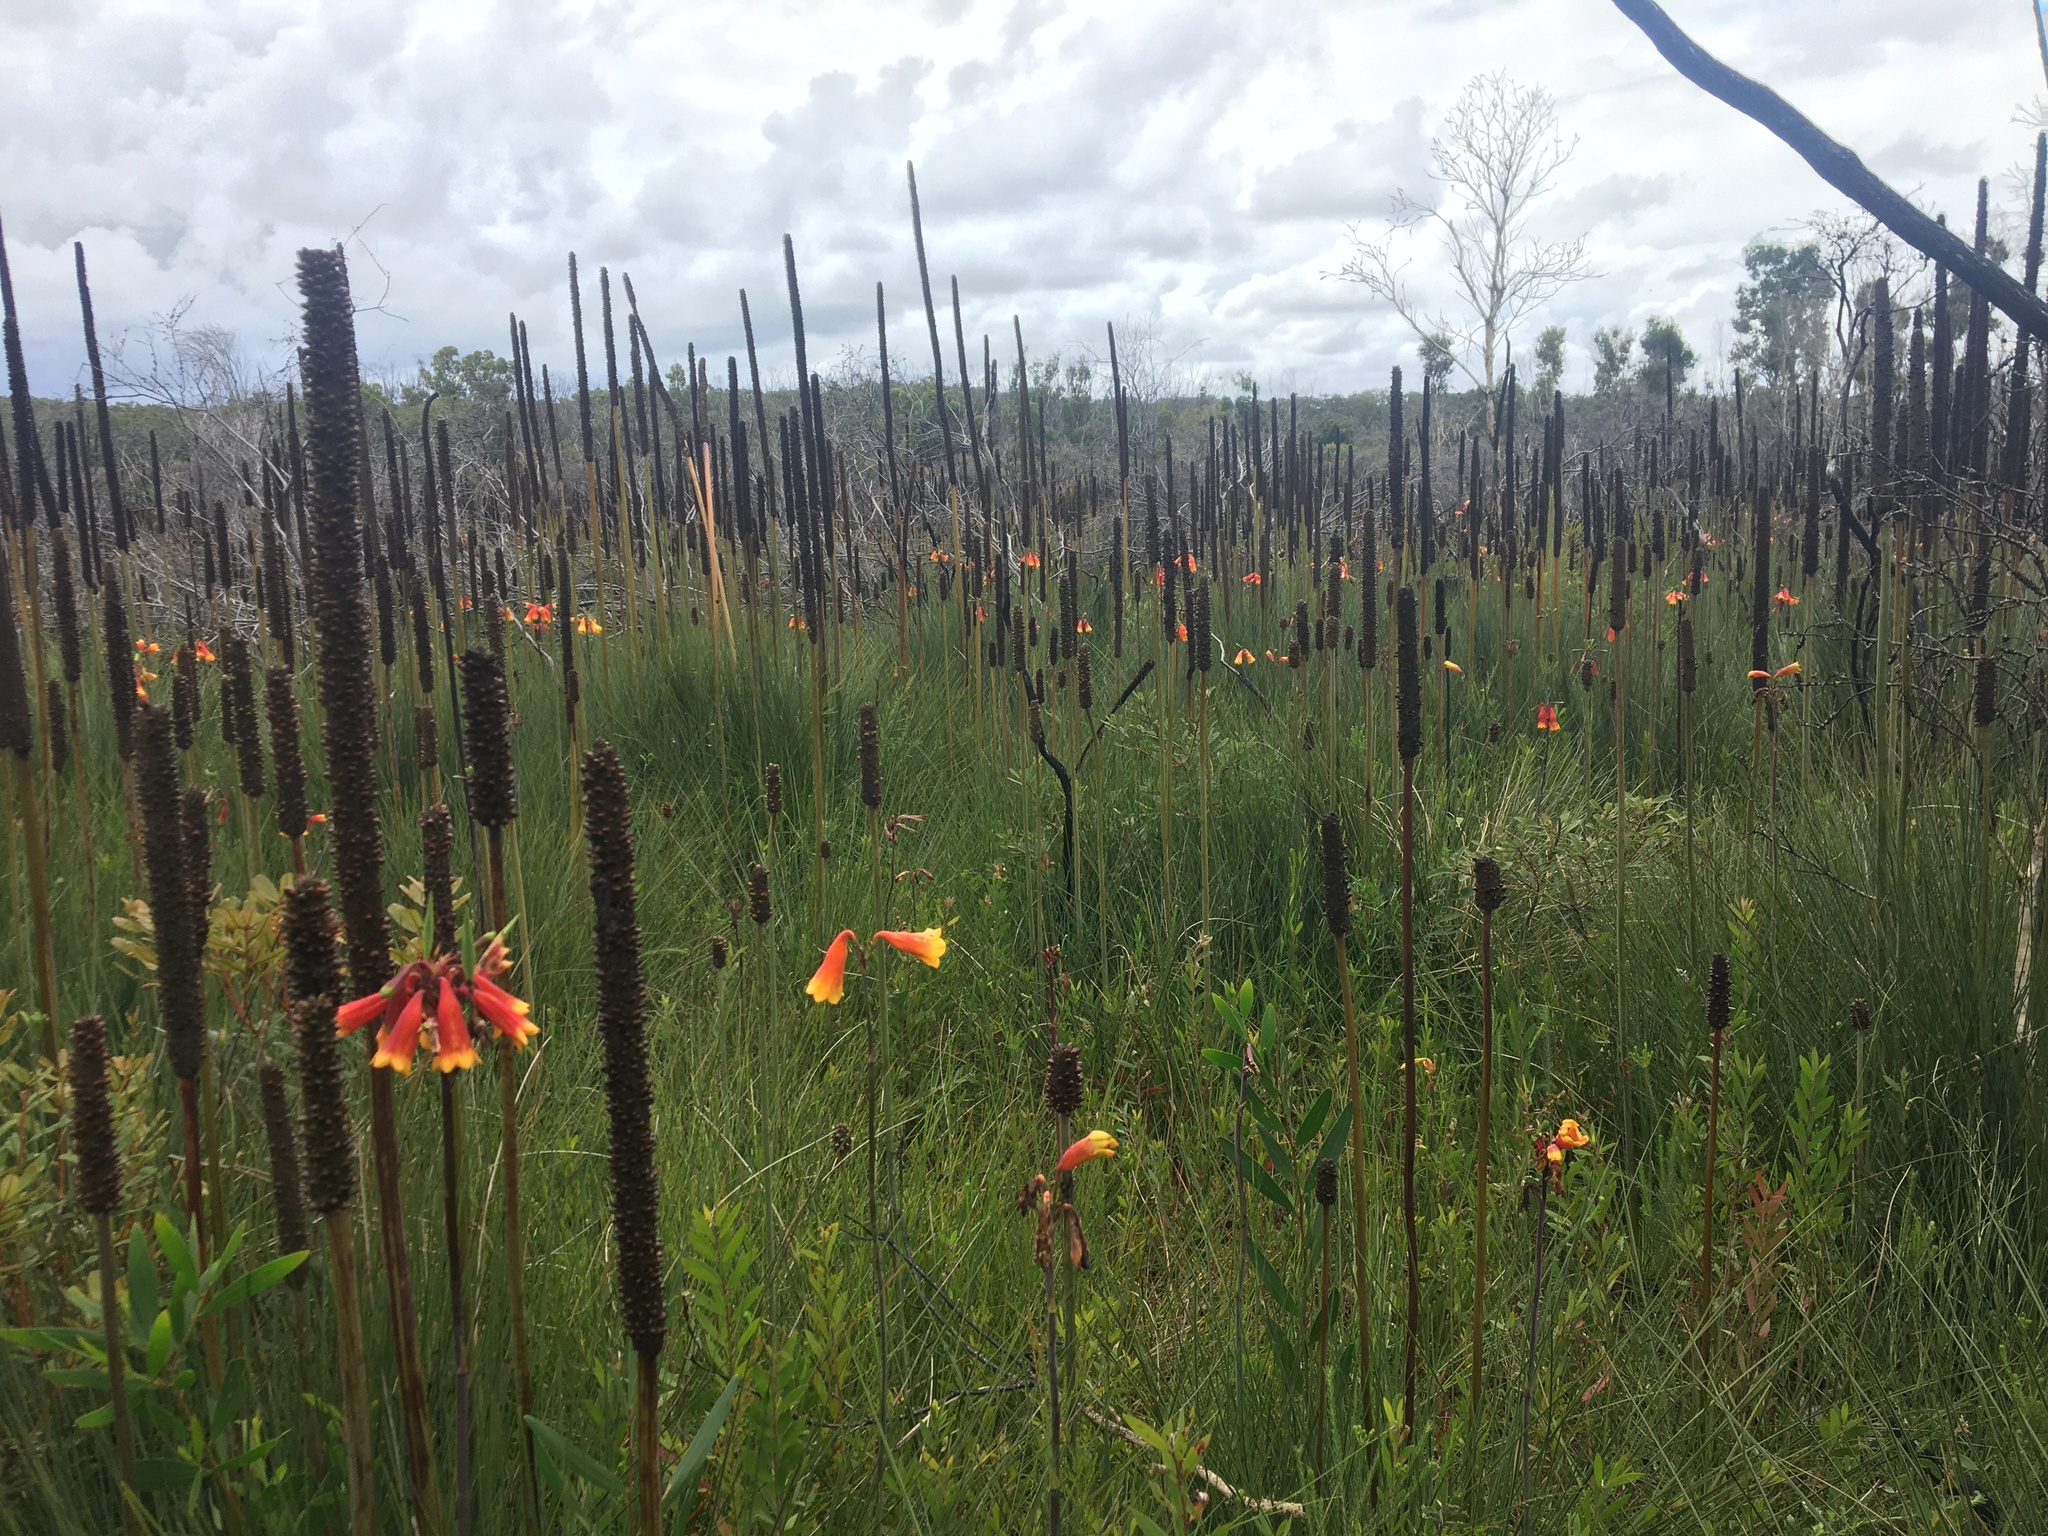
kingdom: Plantae
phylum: Tracheophyta
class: Liliopsida
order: Asparagales
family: Blandfordiaceae
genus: Blandfordia
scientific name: Blandfordia grandiflora
